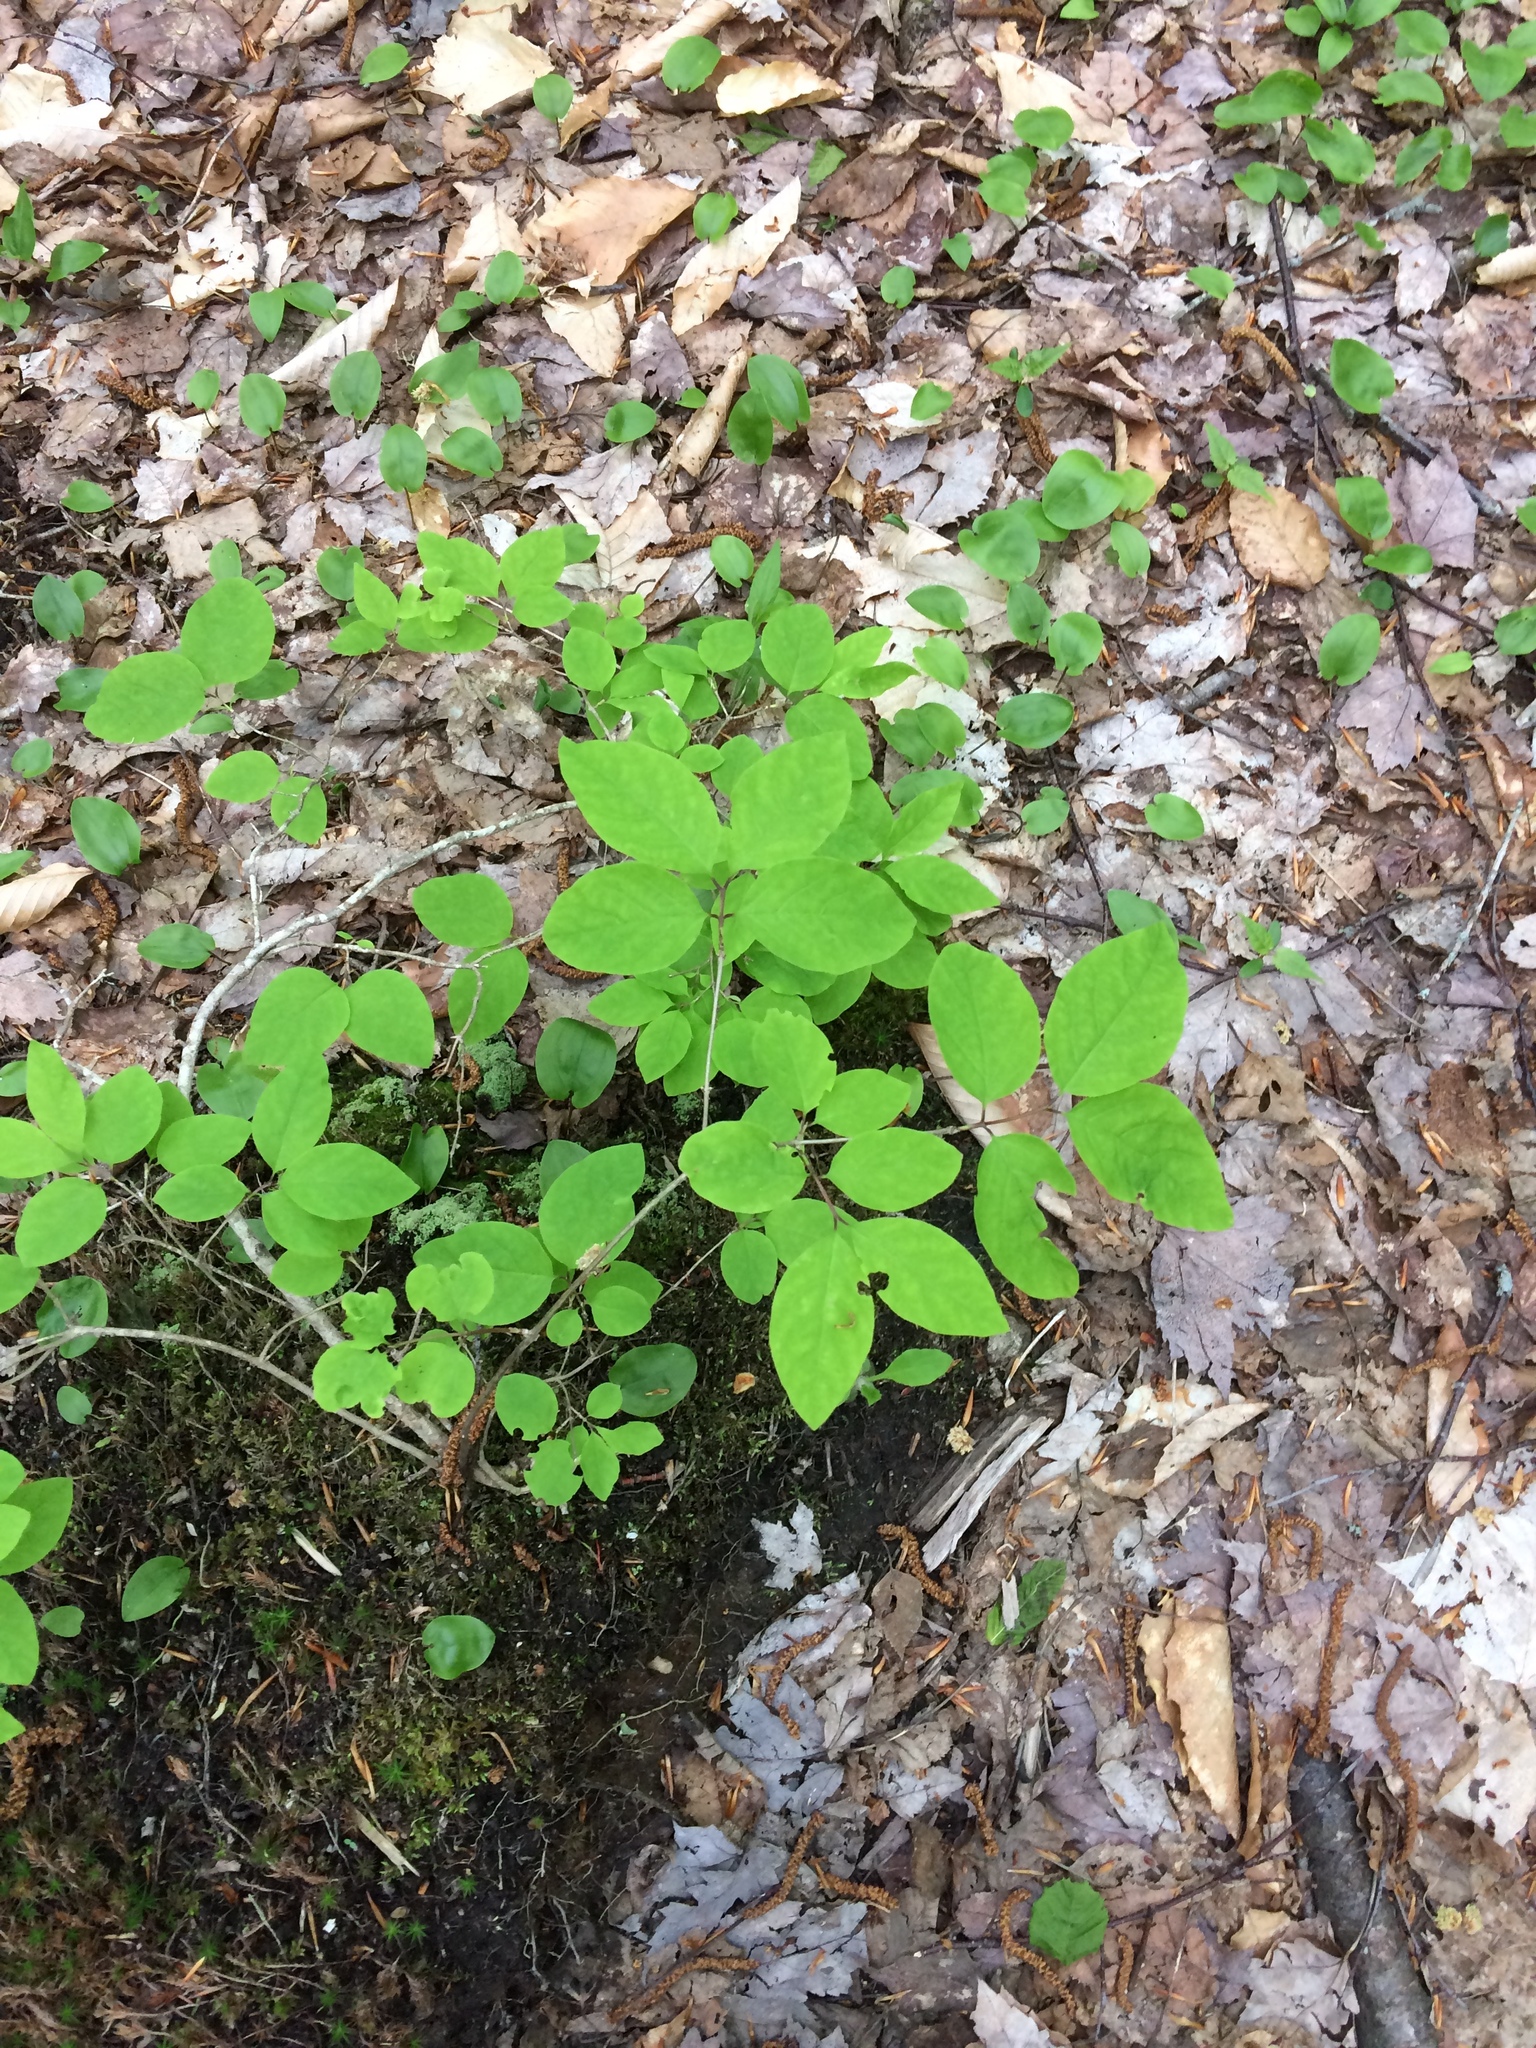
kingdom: Plantae
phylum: Tracheophyta
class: Magnoliopsida
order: Dipsacales
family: Caprifoliaceae
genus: Lonicera
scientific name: Lonicera canadensis
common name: American fly-honeysuckle
